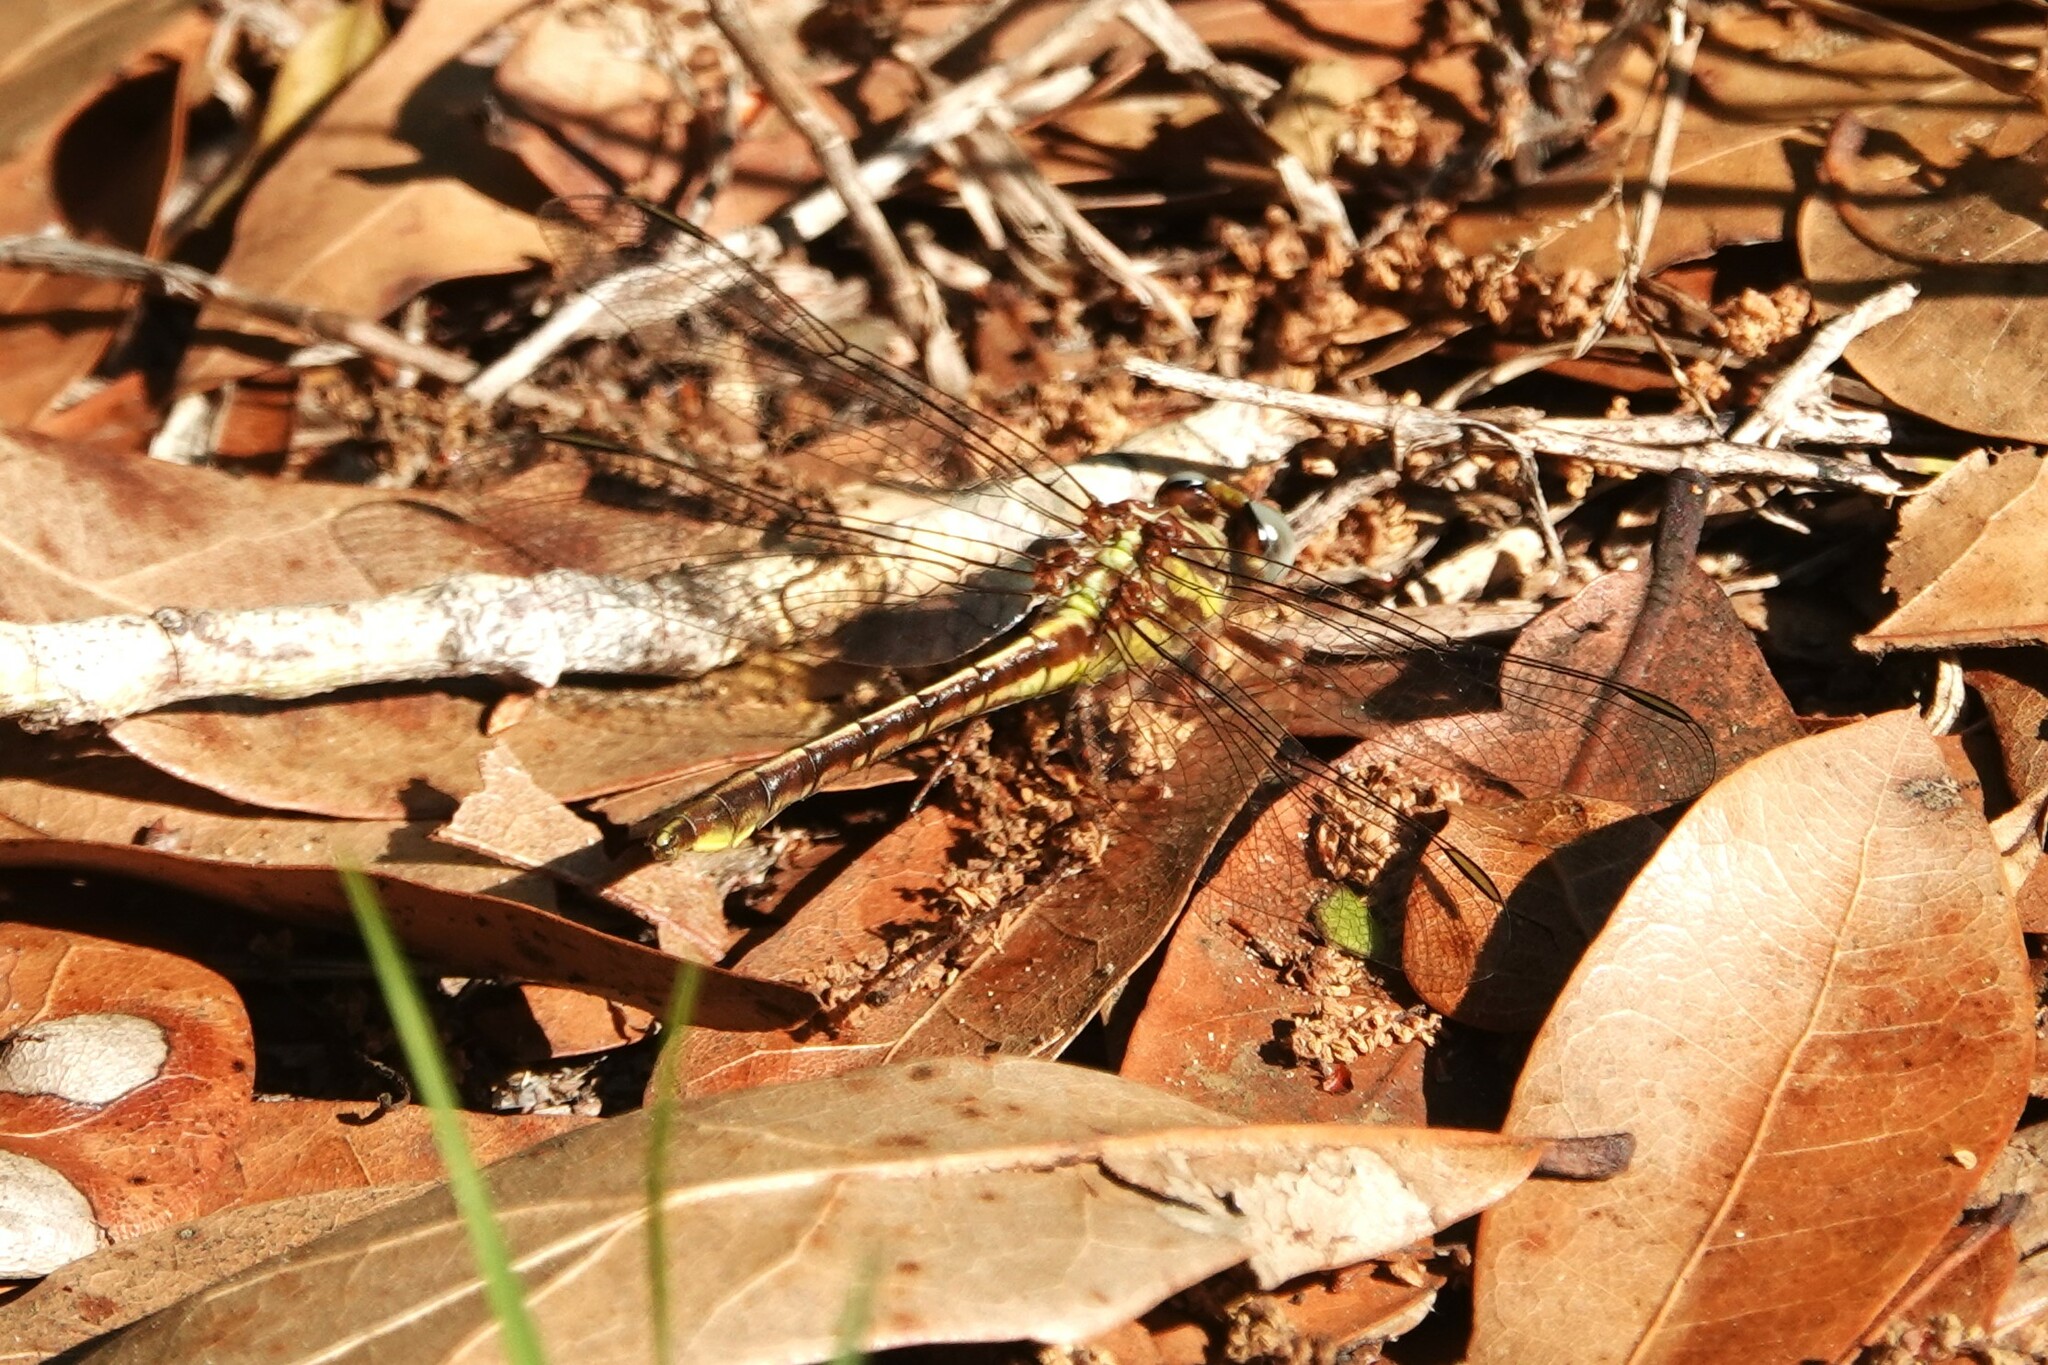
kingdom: Animalia
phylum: Arthropoda
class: Insecta
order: Odonata
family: Gomphidae
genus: Phanogomphus
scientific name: Phanogomphus minutus
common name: Cypress clubtail
